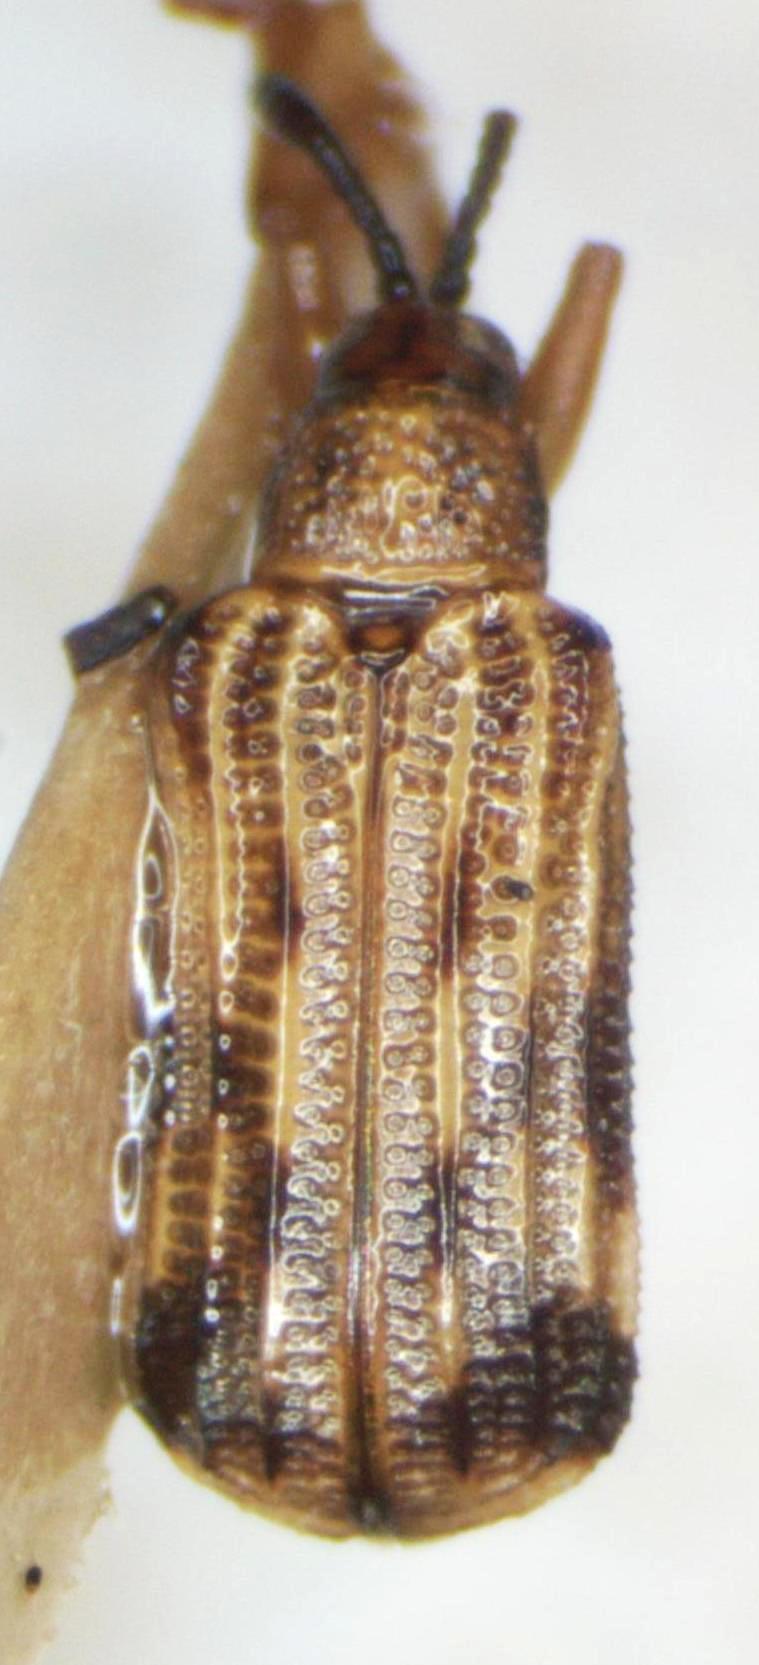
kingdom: Animalia
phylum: Arthropoda
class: Insecta
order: Coleoptera
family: Chrysomelidae
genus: Sumitrosis
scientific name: Sumitrosis inaequalis
